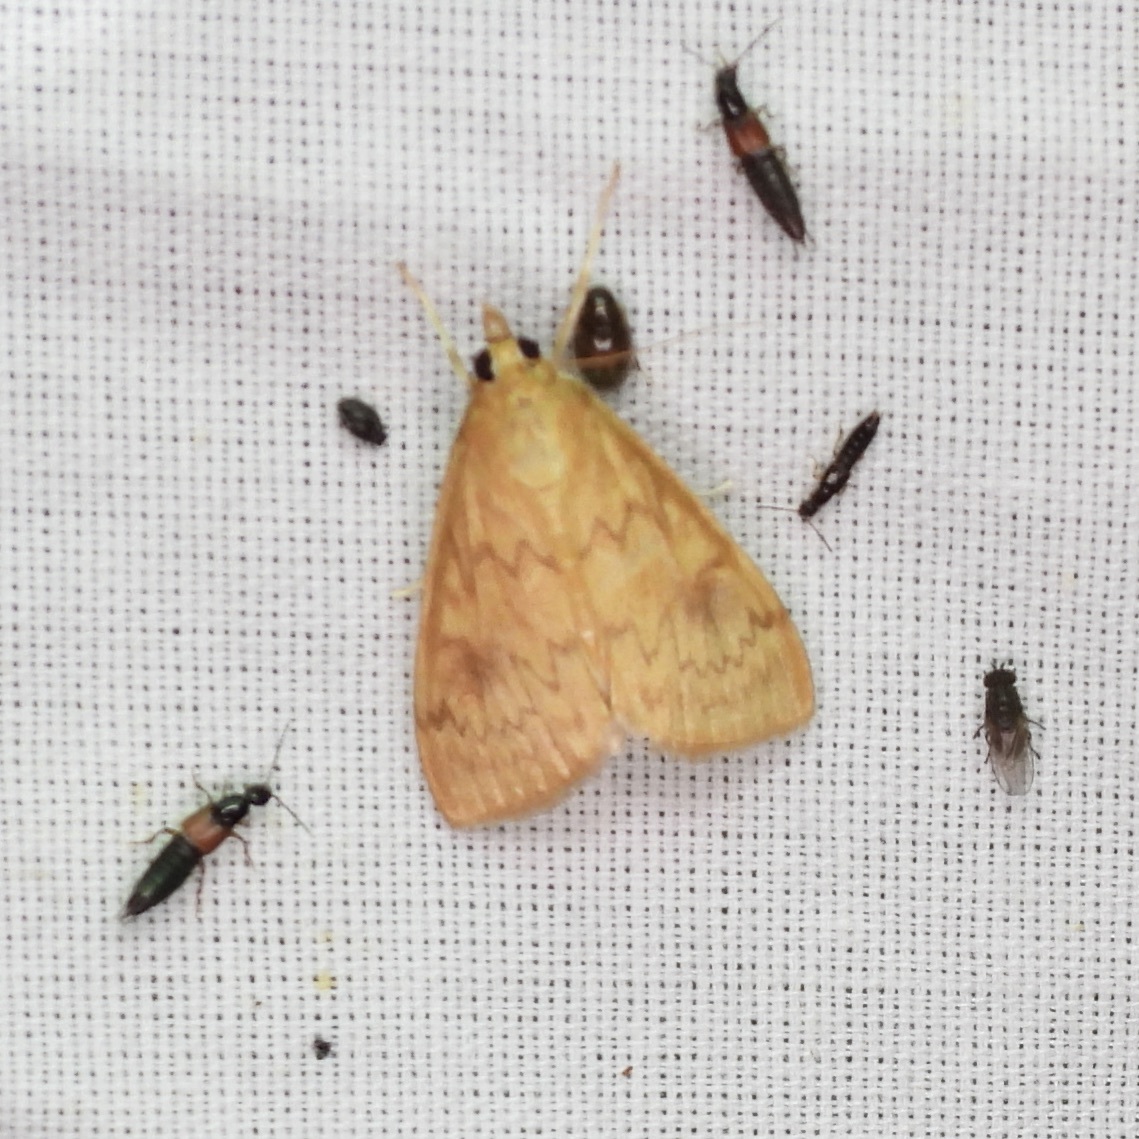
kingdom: Animalia
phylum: Arthropoda
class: Insecta
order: Lepidoptera
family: Crambidae
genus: Ostrinia
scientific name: Ostrinia penitalis
